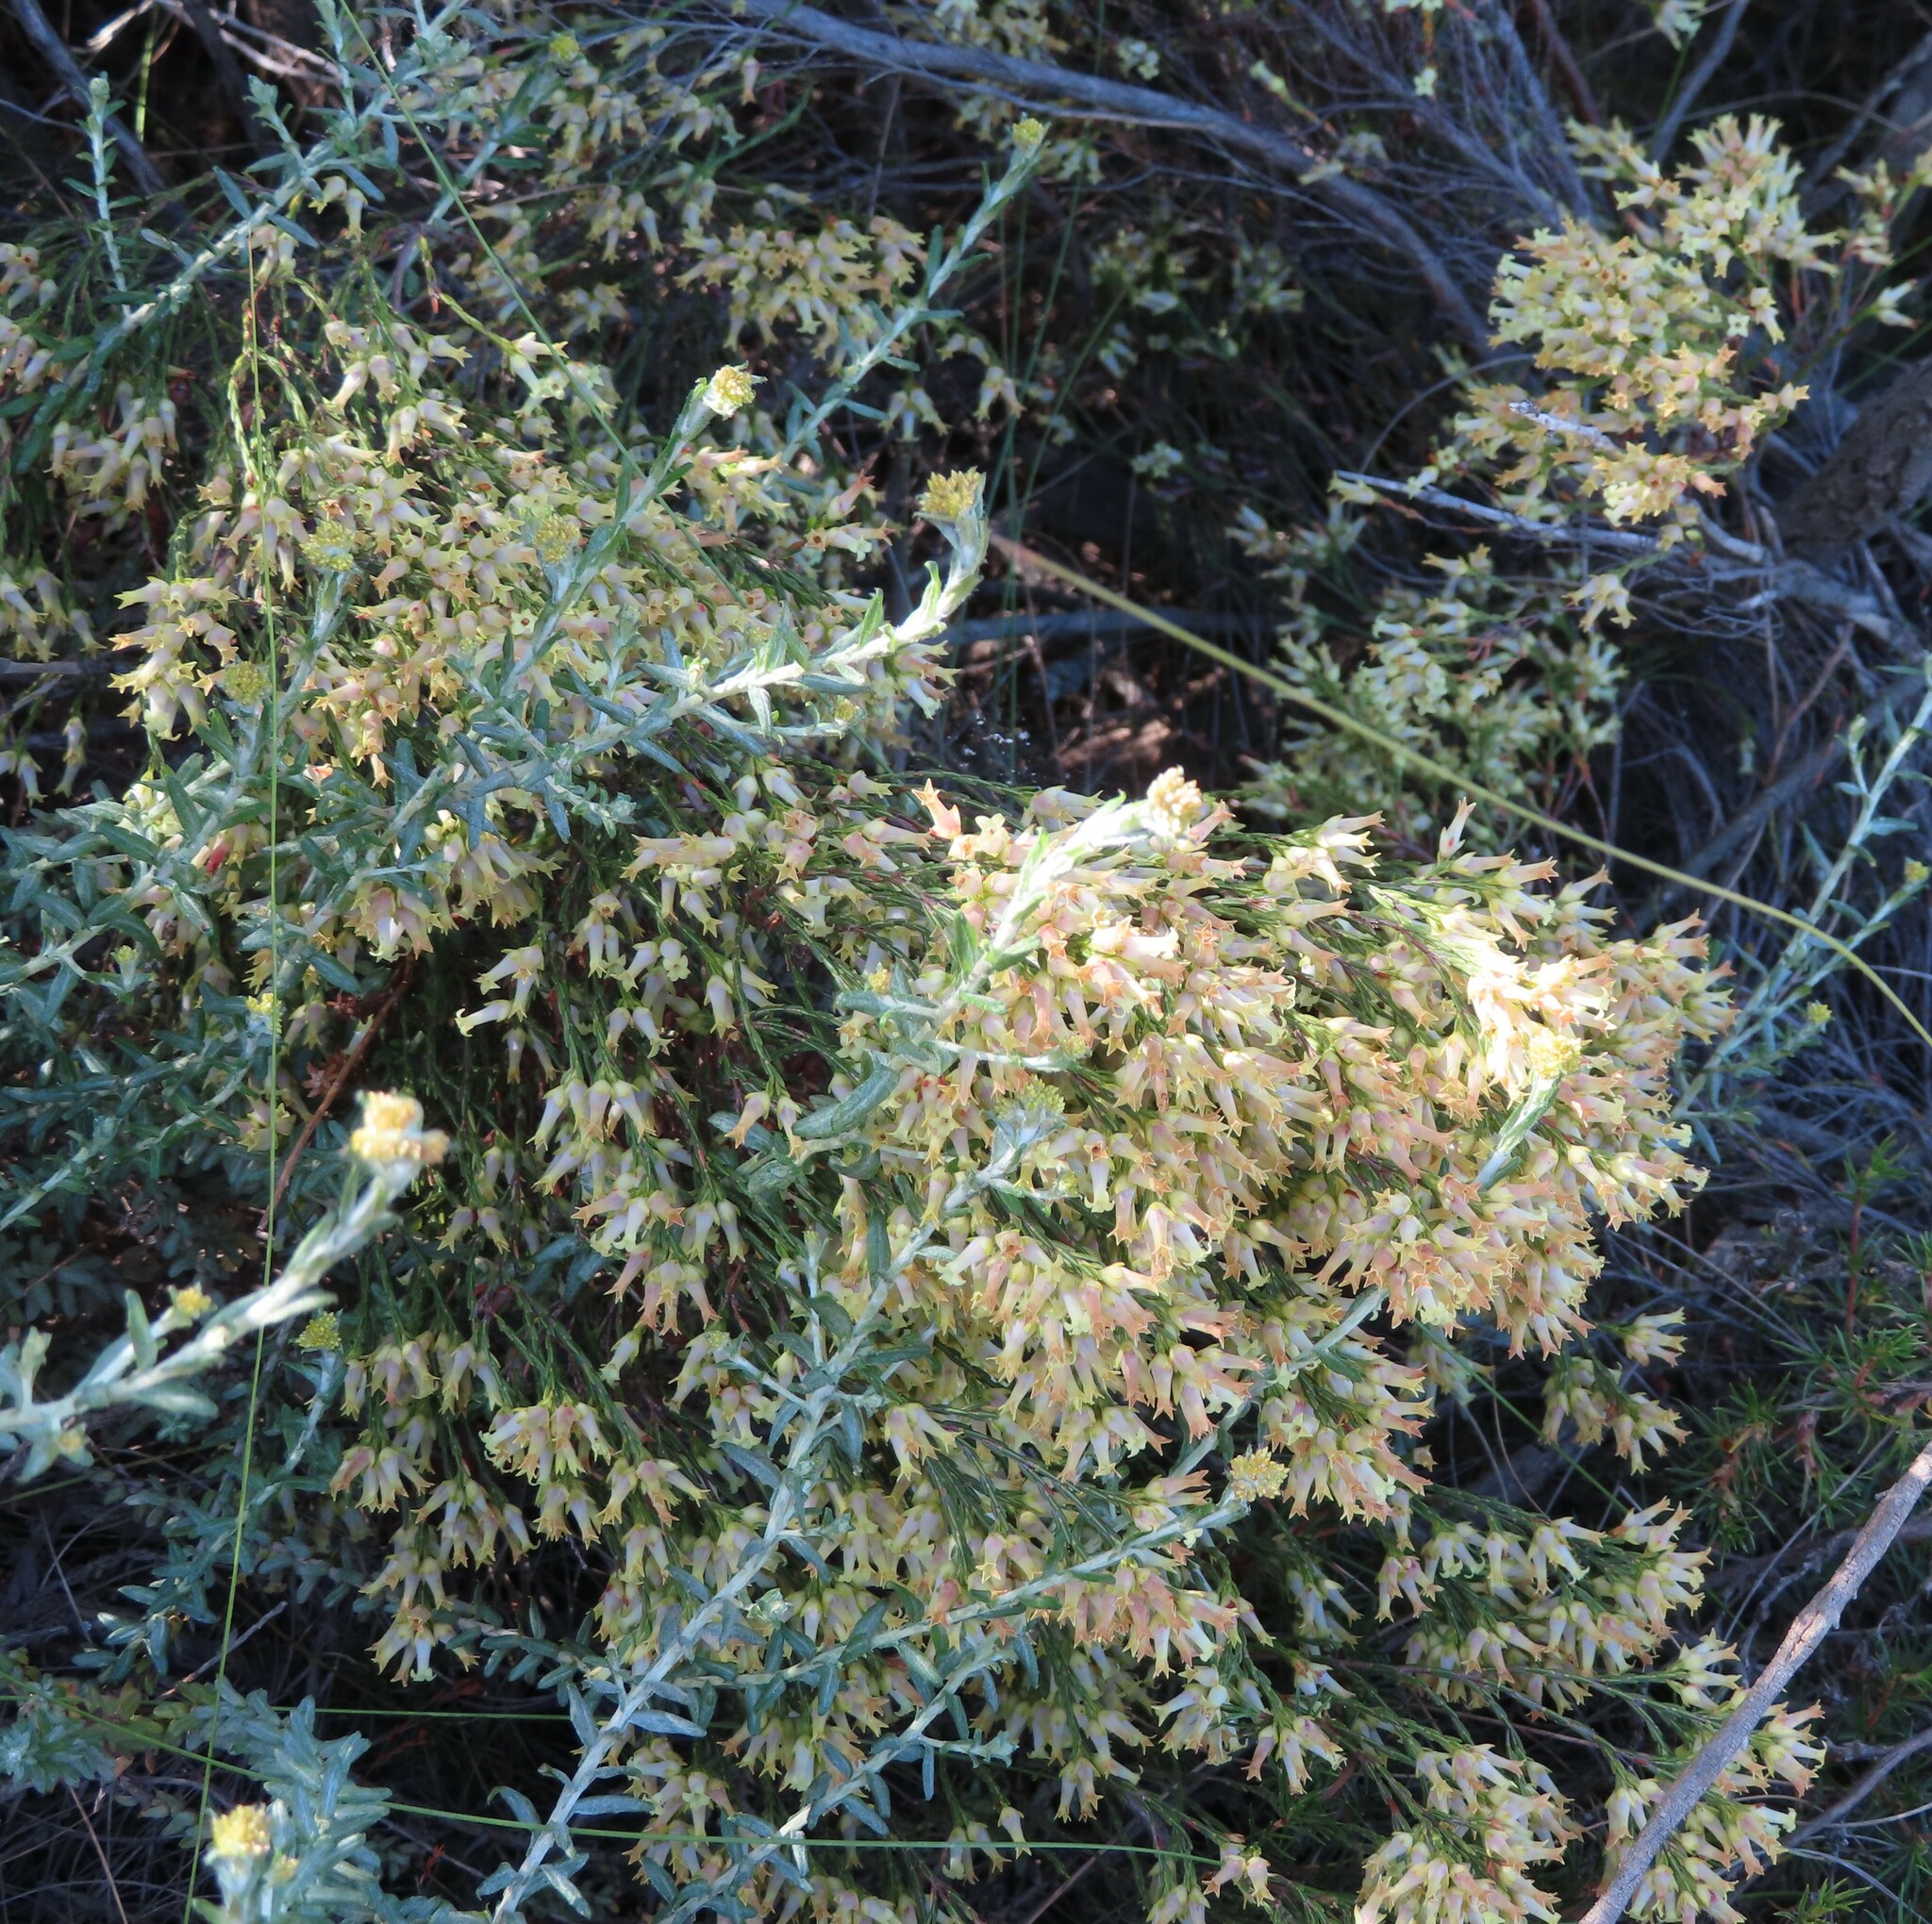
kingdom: Plantae
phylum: Tracheophyta
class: Magnoliopsida
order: Ericales
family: Ericaceae
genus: Erica
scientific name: Erica lutea
